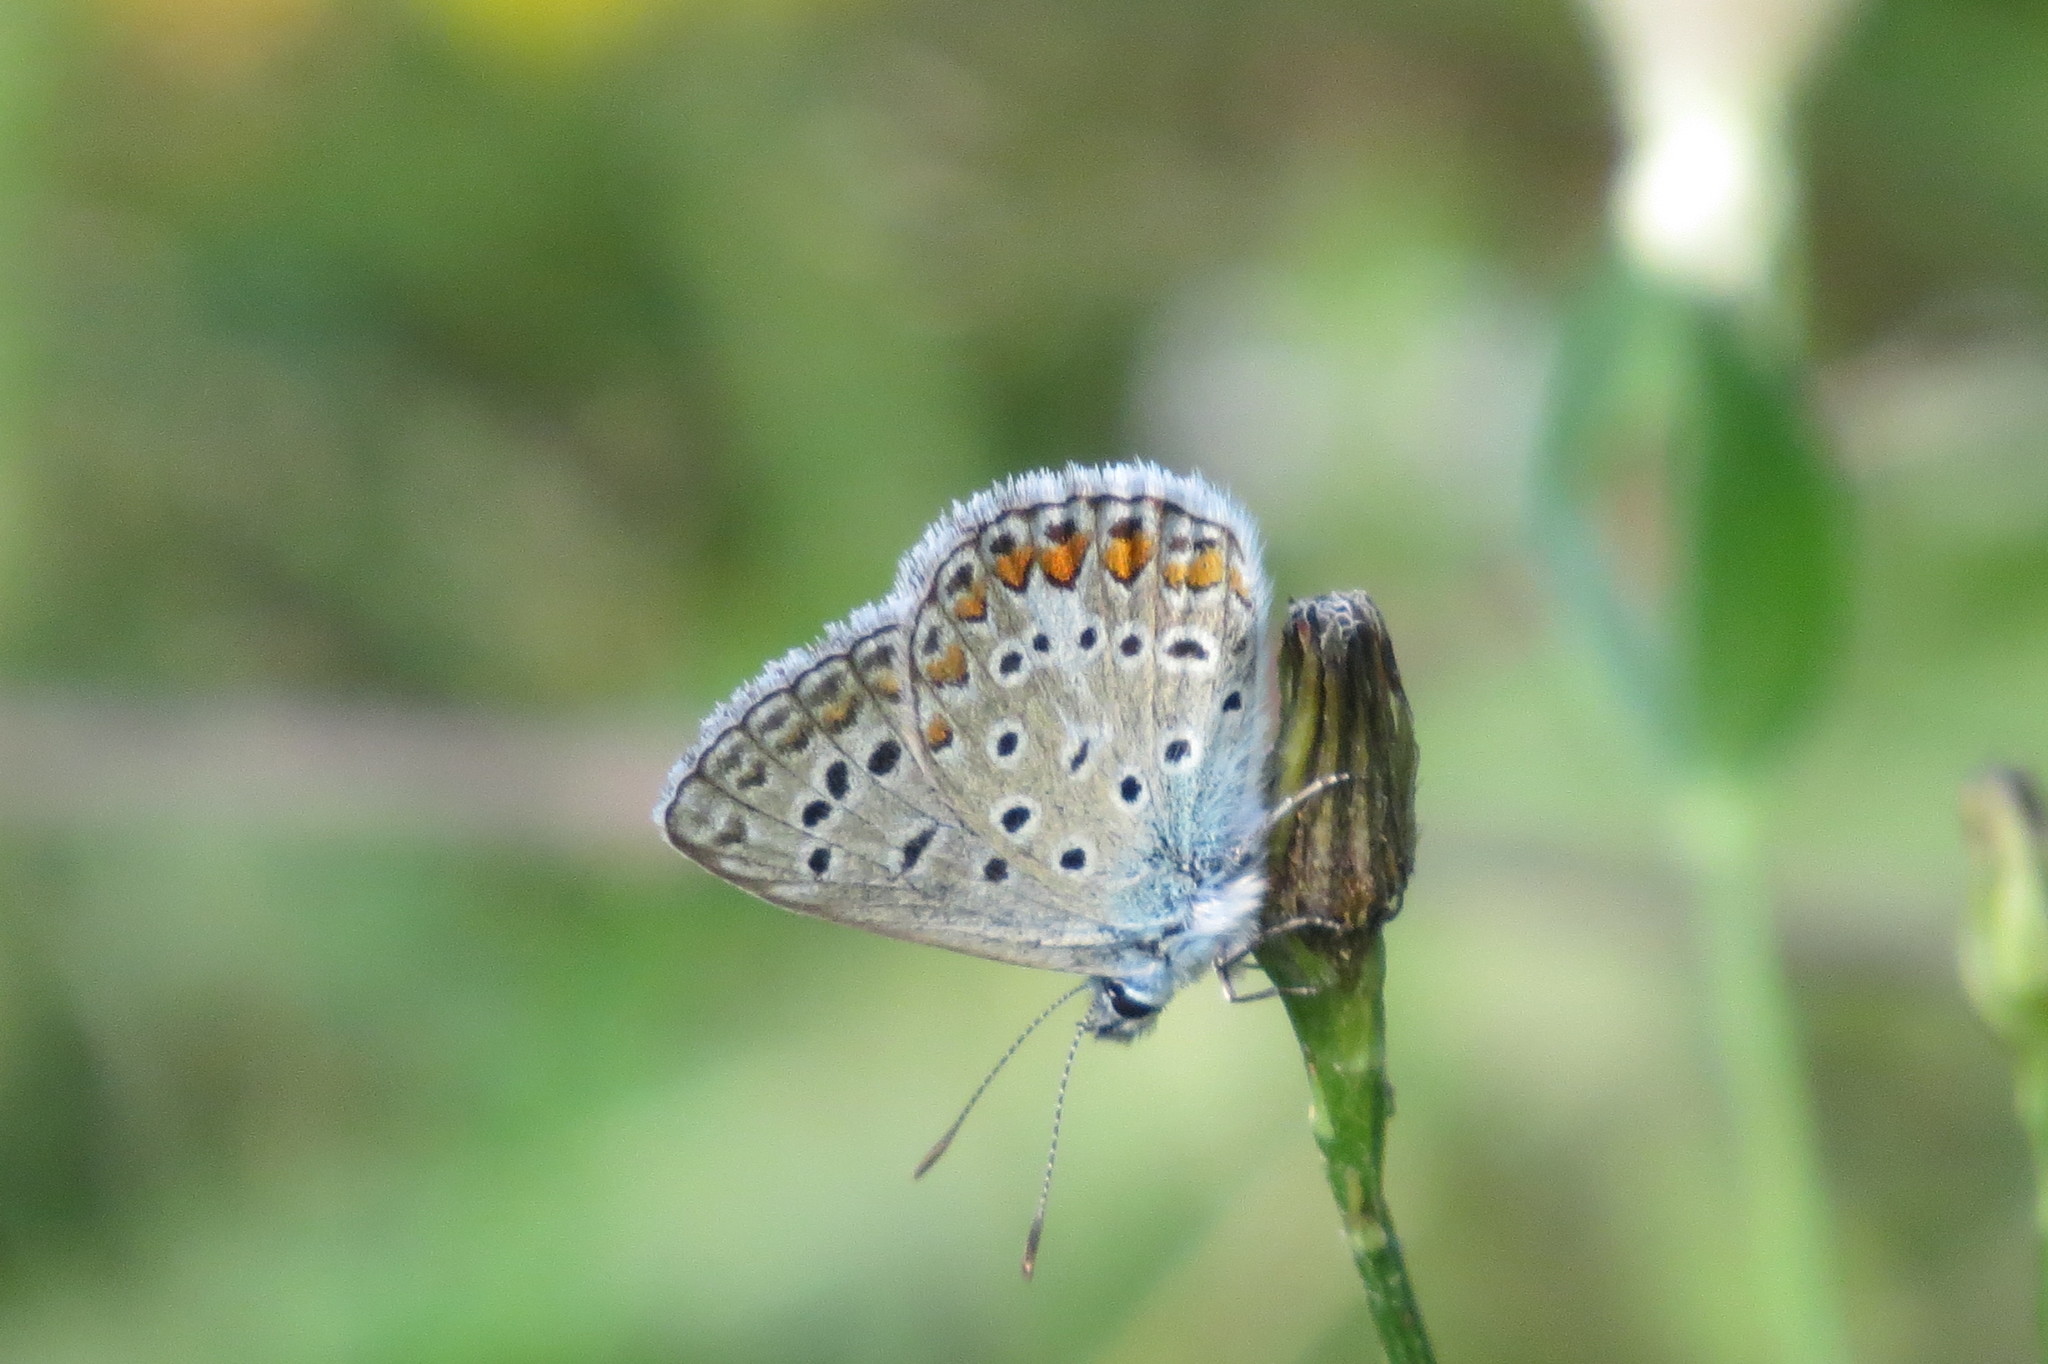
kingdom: Animalia
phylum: Arthropoda
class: Insecta
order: Lepidoptera
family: Lycaenidae
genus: Polyommatus
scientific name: Polyommatus icarus
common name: Common blue
